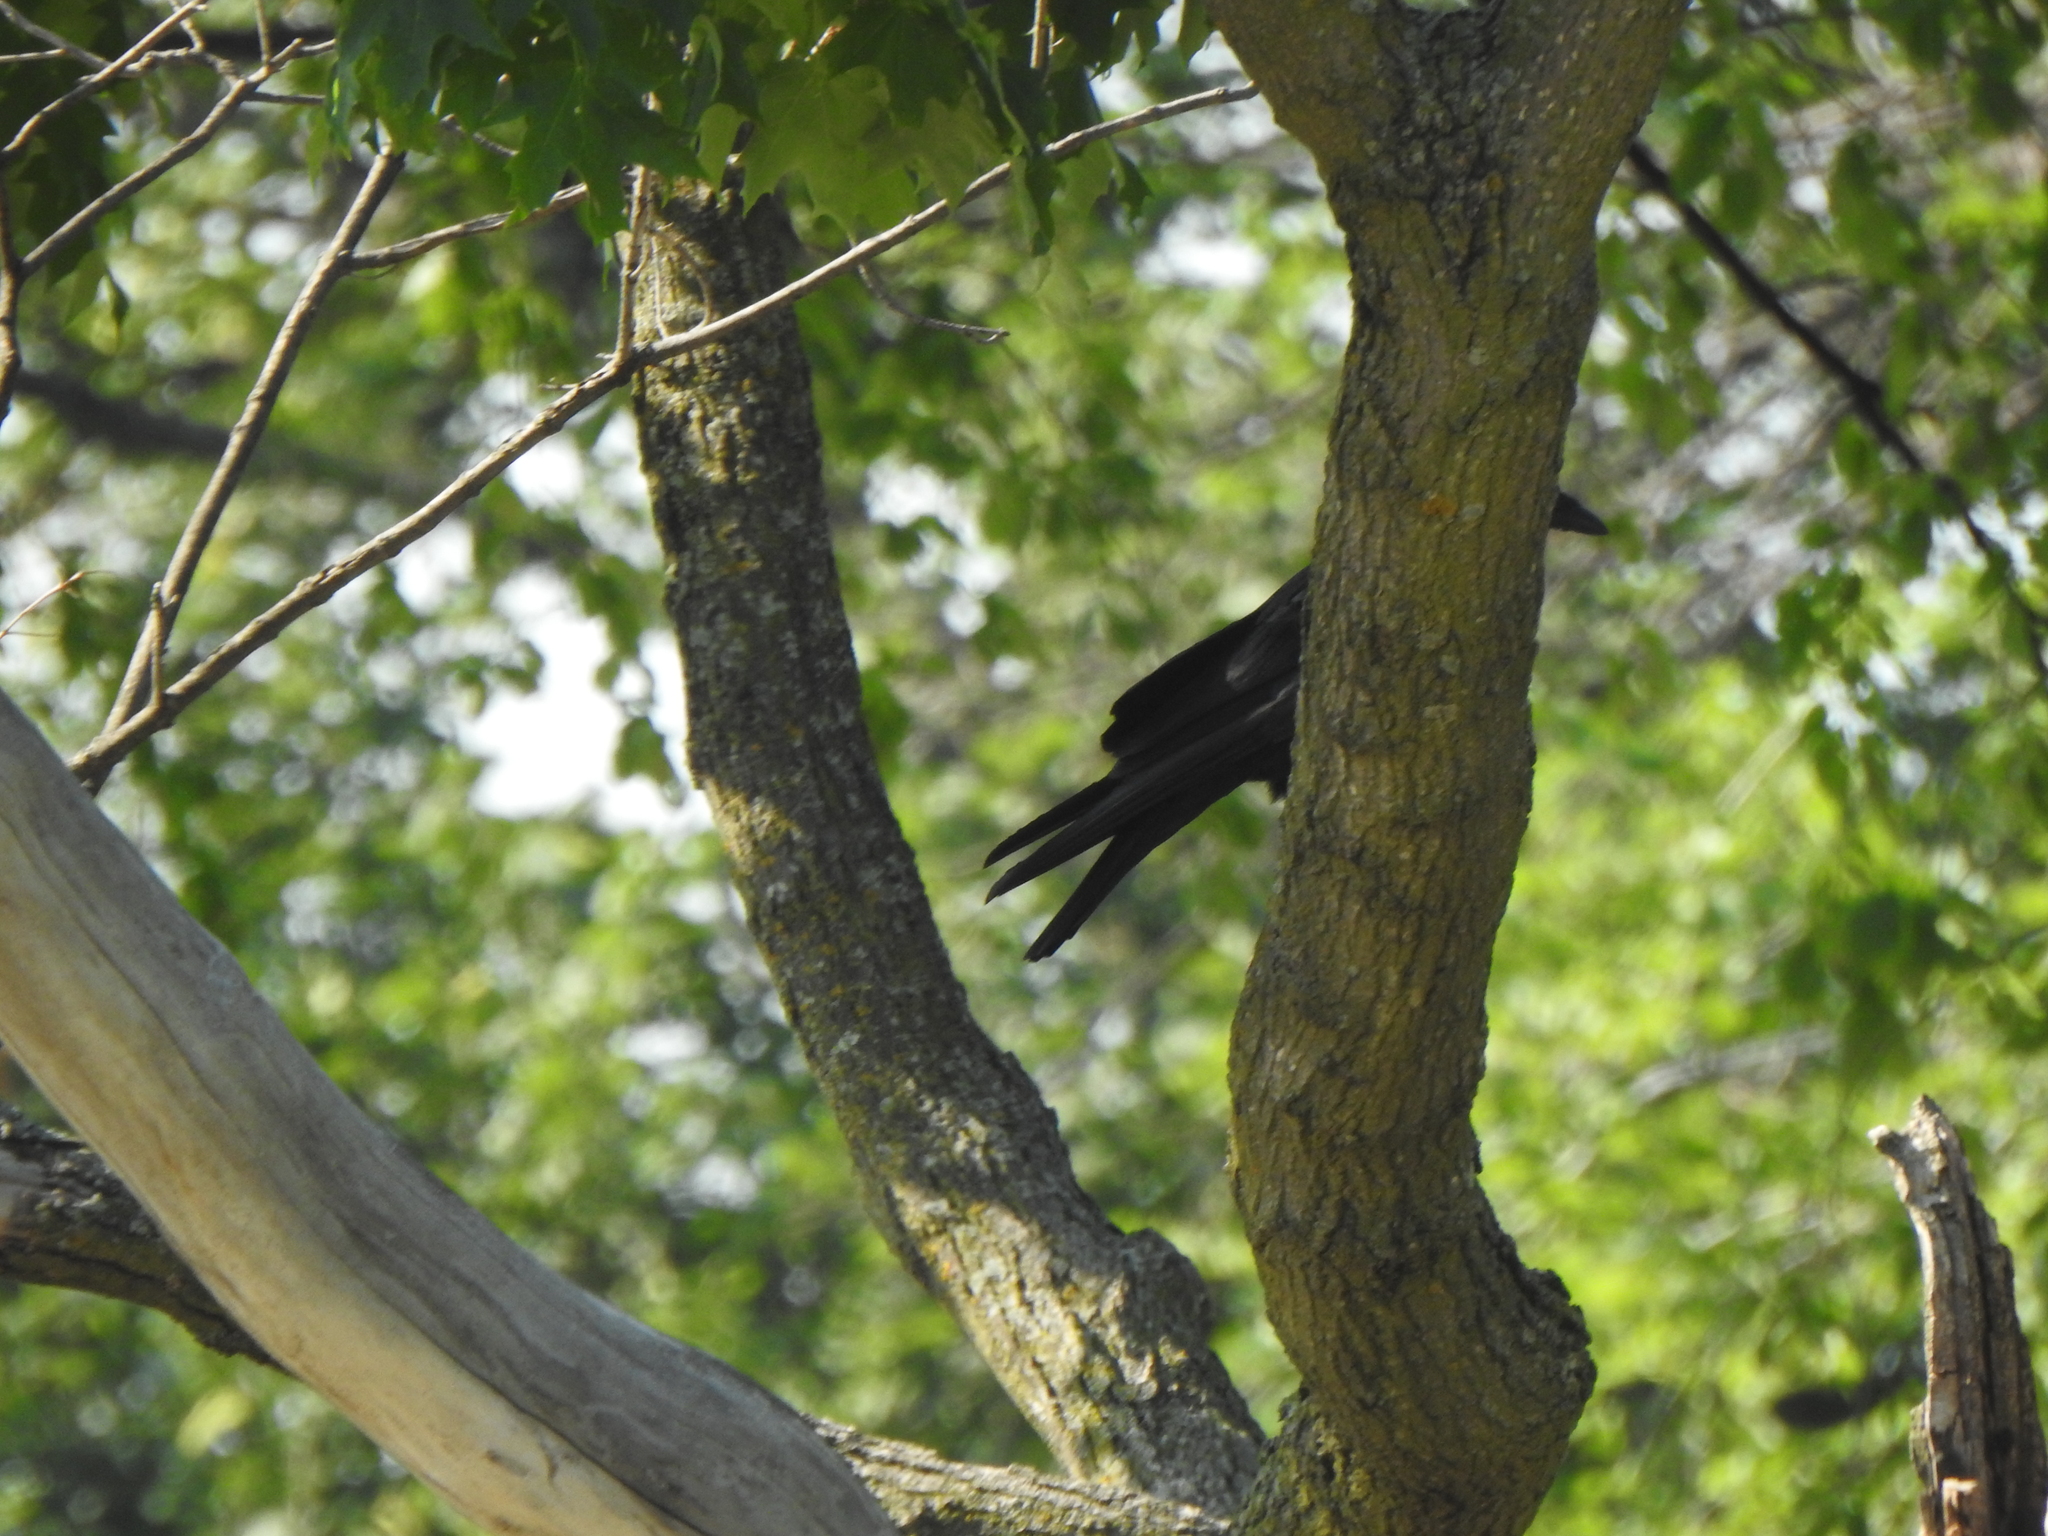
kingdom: Animalia
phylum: Chordata
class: Aves
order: Passeriformes
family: Corvidae
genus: Corvus
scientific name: Corvus brachyrhynchos
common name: American crow
